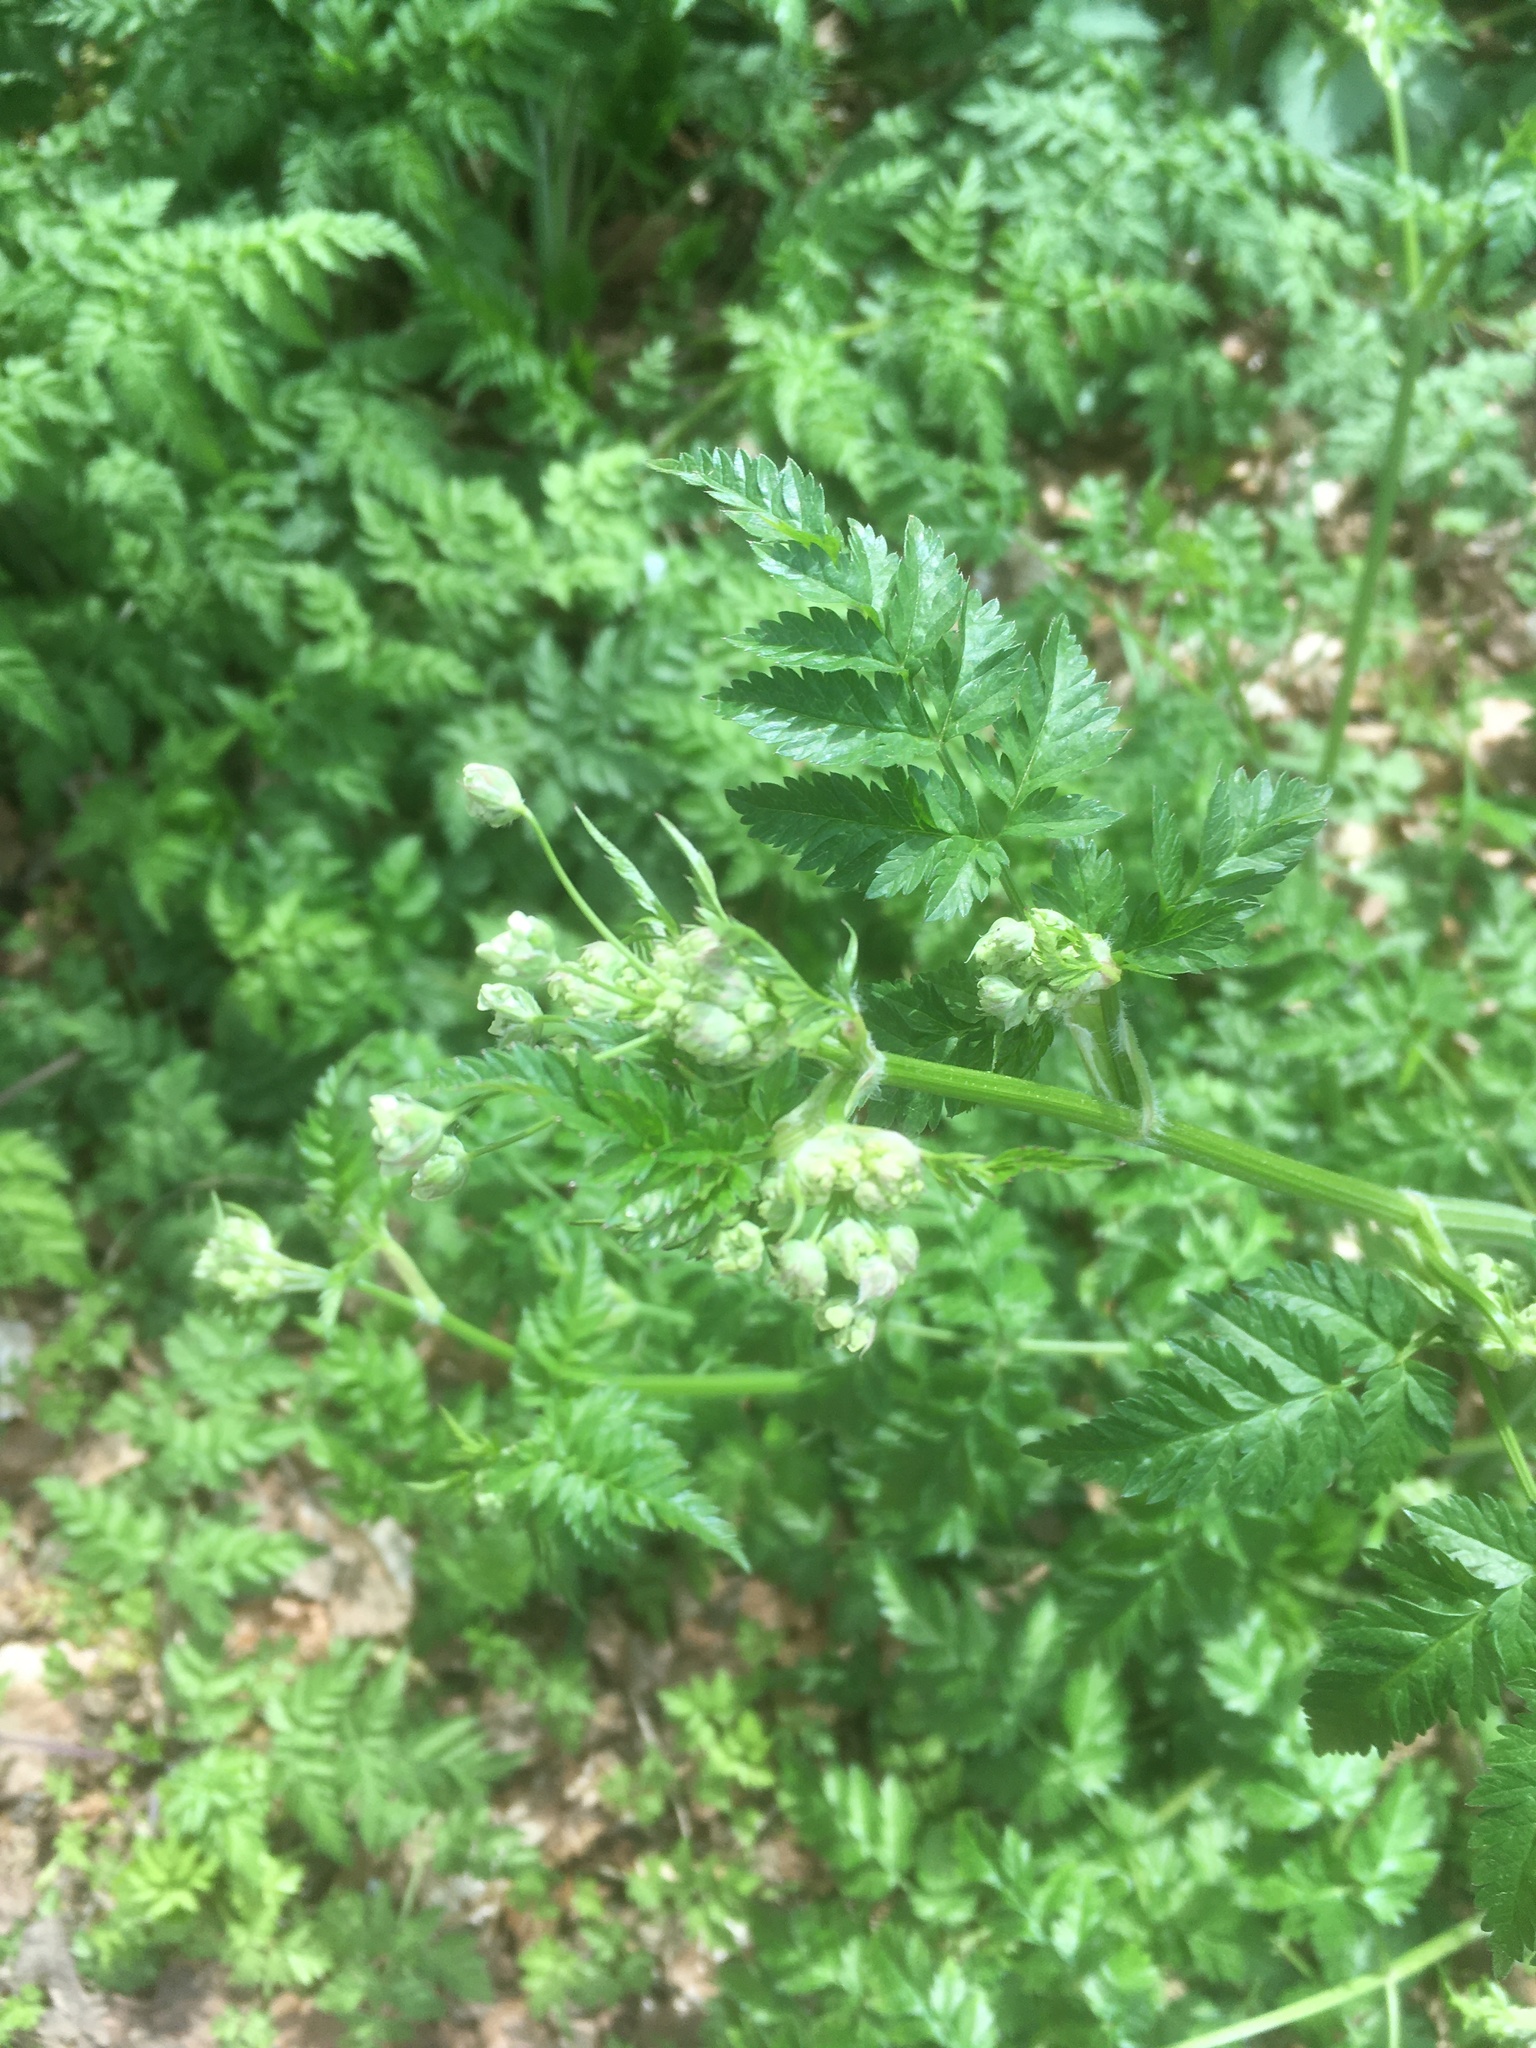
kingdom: Plantae
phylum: Tracheophyta
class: Magnoliopsida
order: Apiales
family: Apiaceae
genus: Anthriscus
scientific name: Anthriscus sylvestris
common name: Cow parsley
